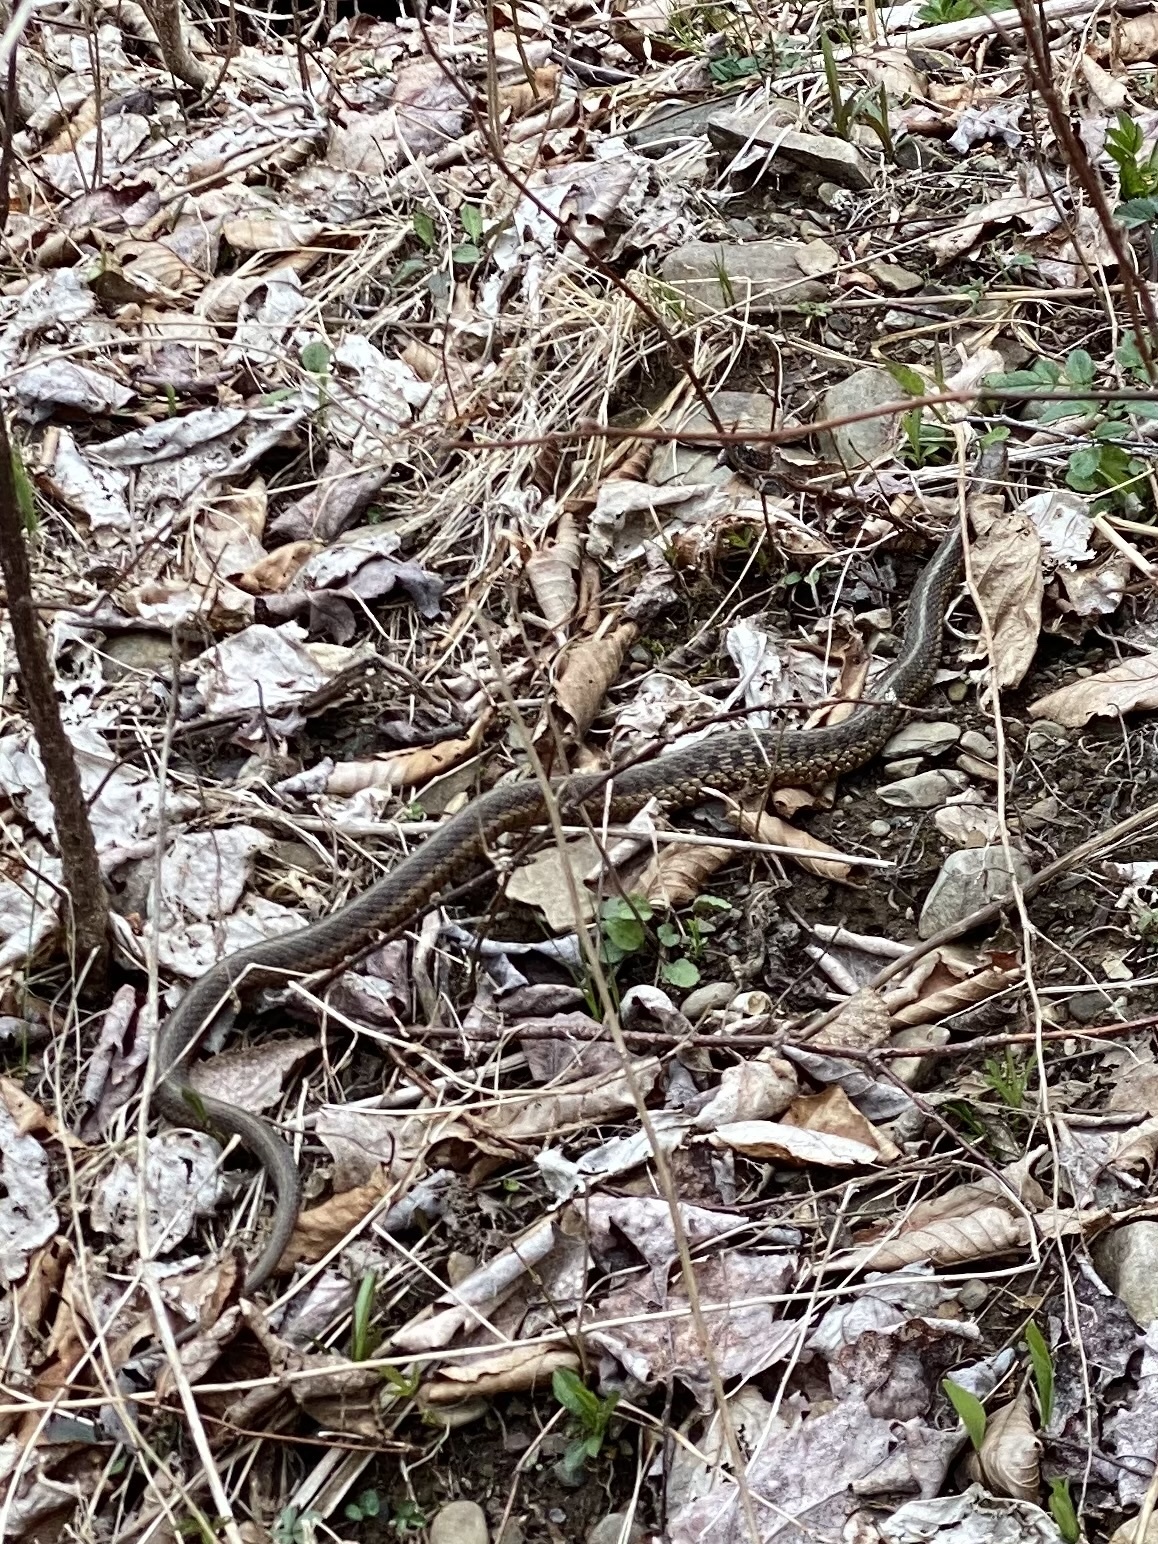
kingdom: Animalia
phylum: Chordata
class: Squamata
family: Colubridae
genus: Thamnophis
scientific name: Thamnophis sirtalis
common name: Common garter snake
